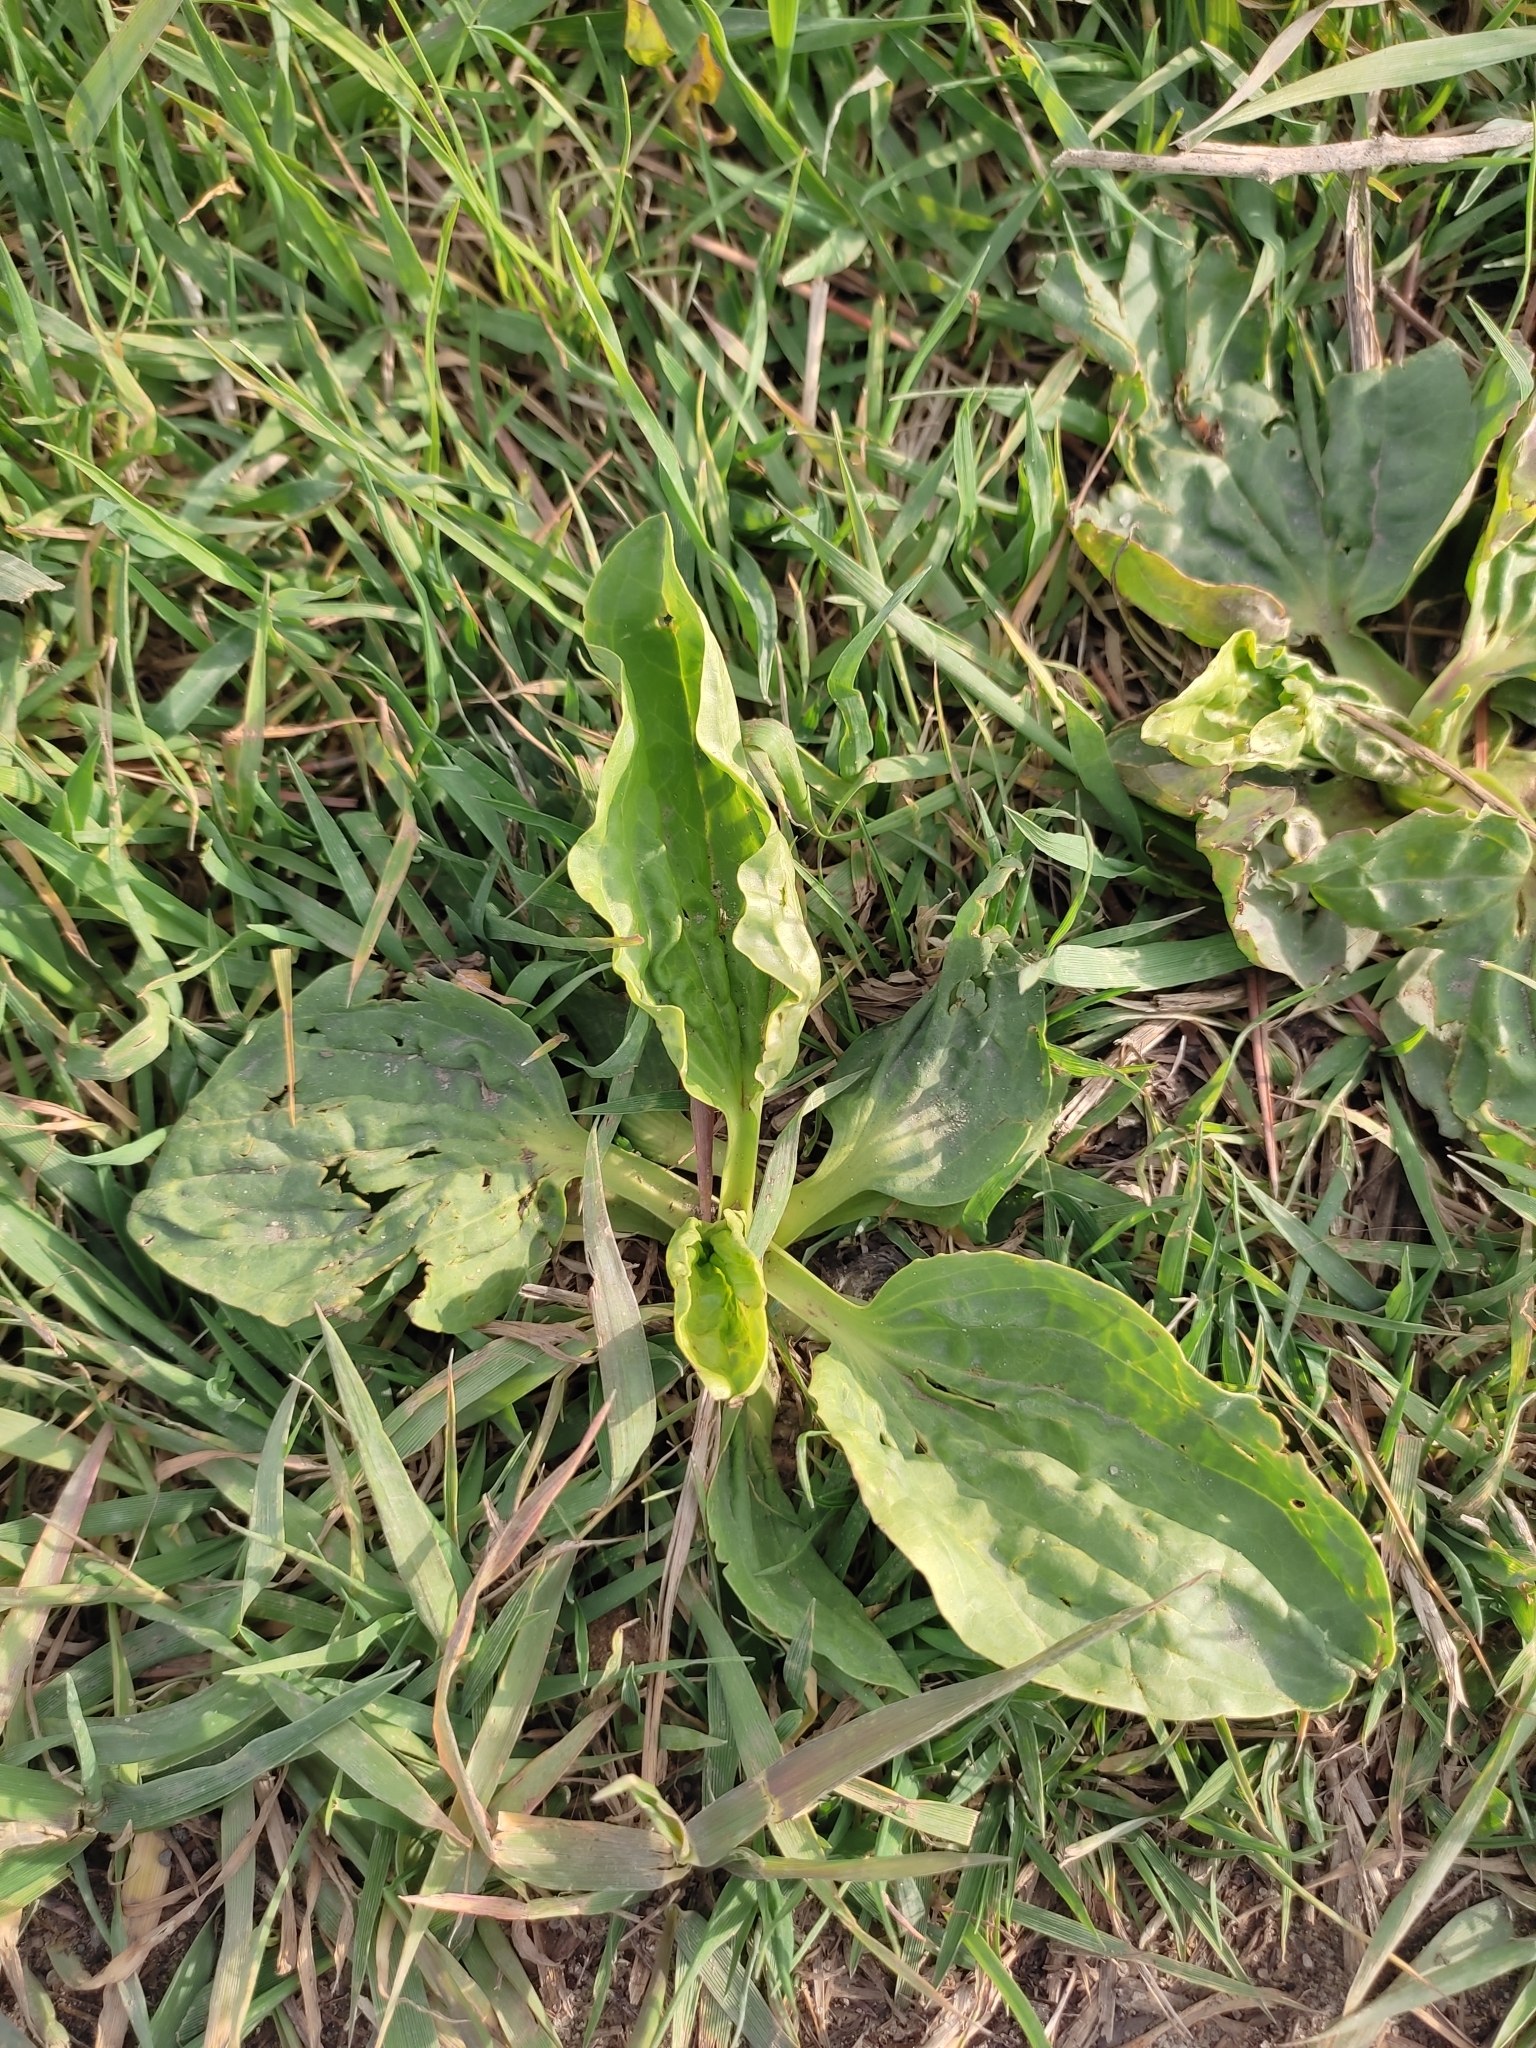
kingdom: Plantae
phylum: Tracheophyta
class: Magnoliopsida
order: Lamiales
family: Plantaginaceae
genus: Plantago
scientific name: Plantago major
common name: Common plantain
